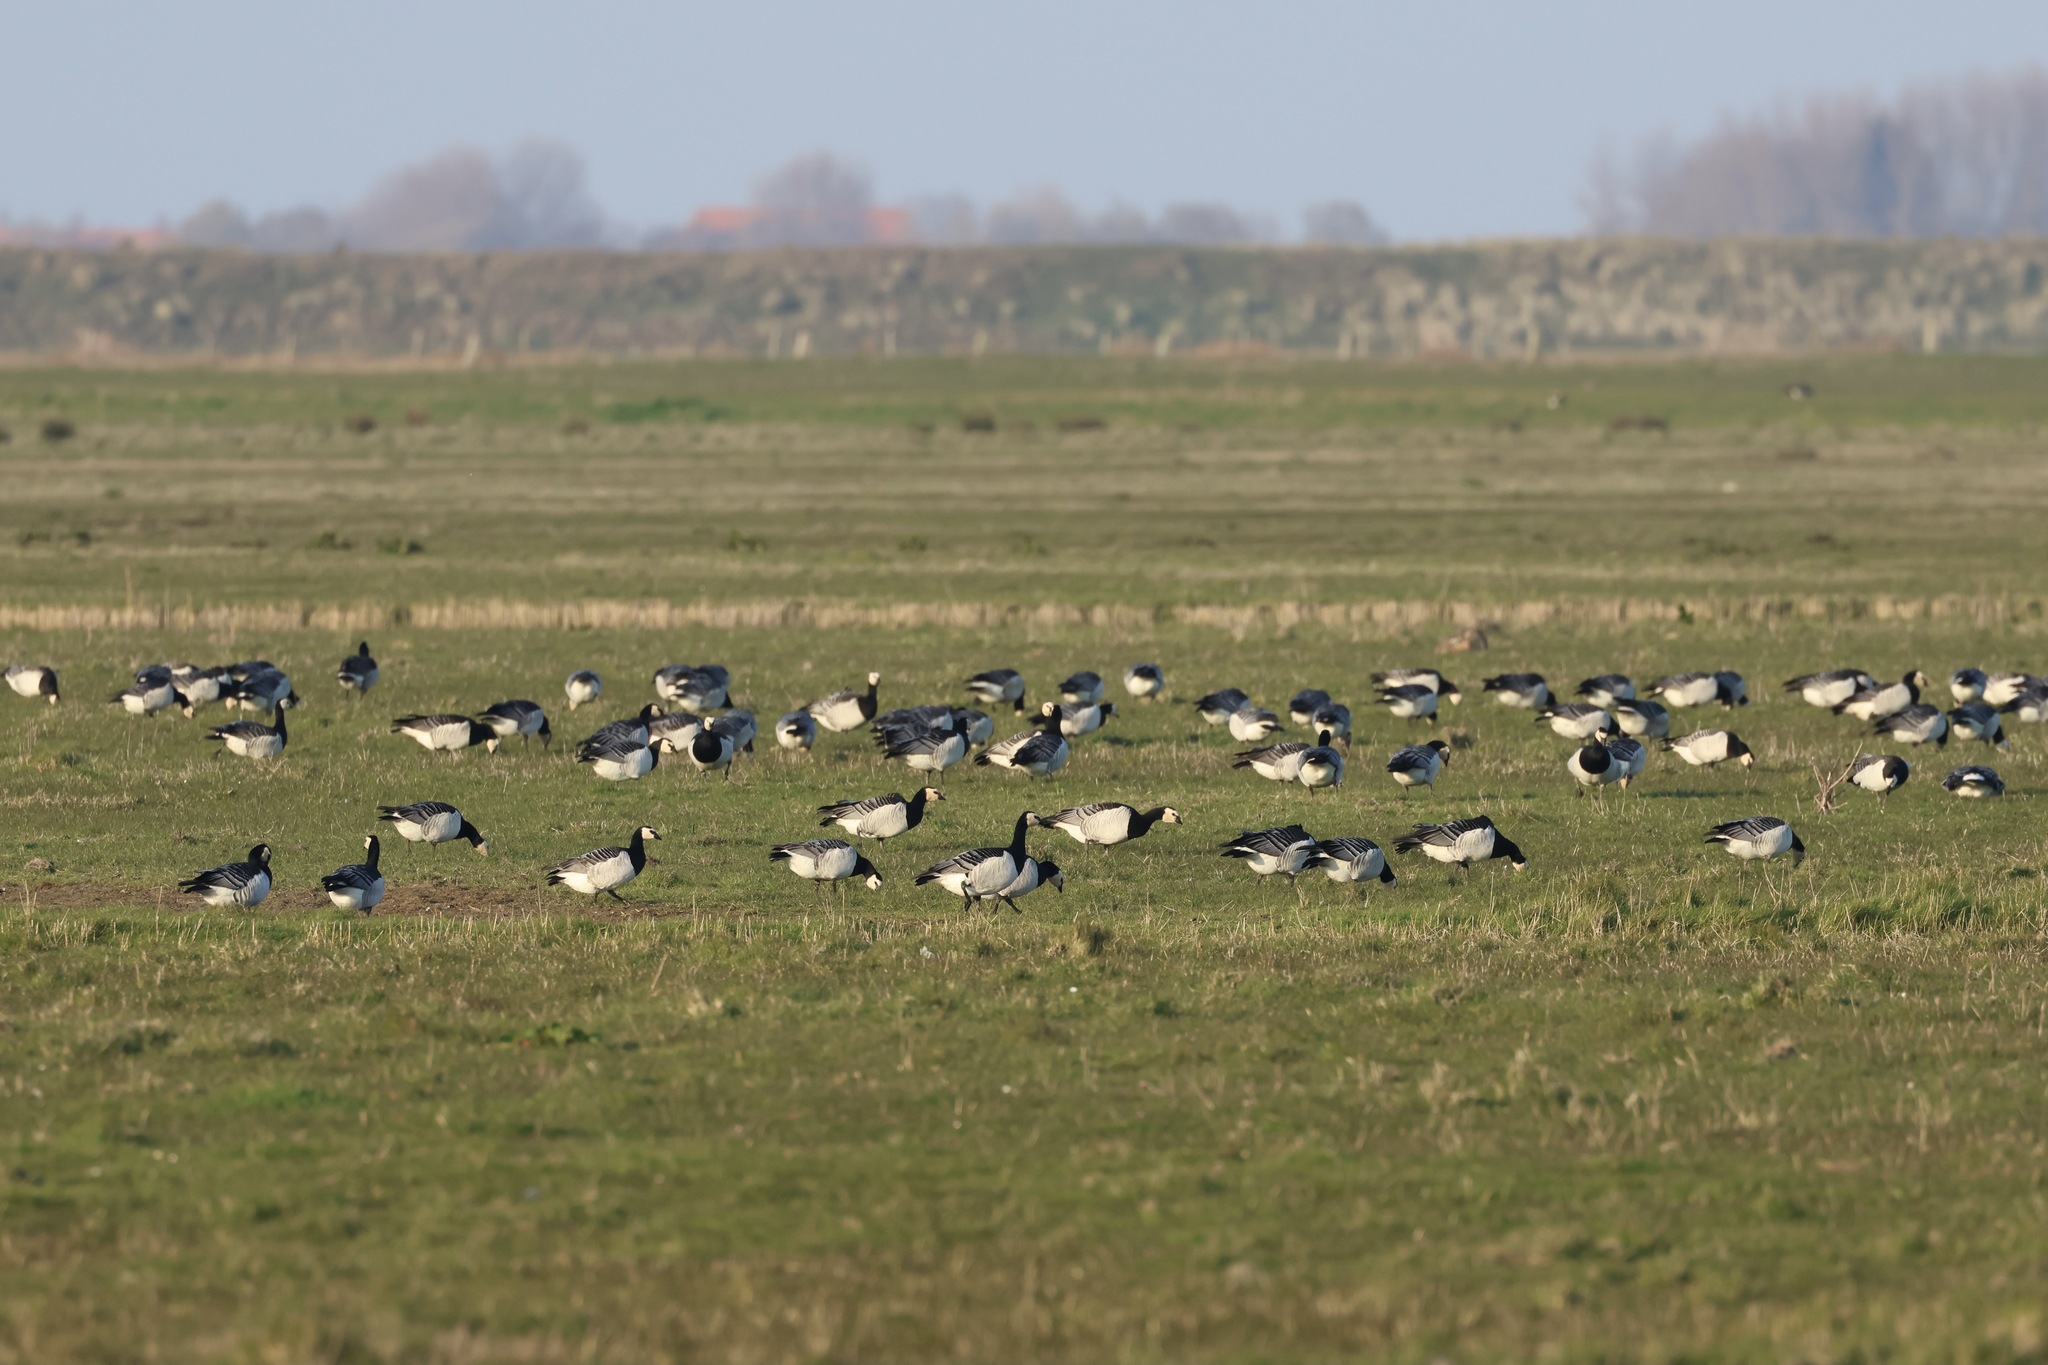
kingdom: Animalia
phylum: Chordata
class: Aves
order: Anseriformes
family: Anatidae
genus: Branta
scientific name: Branta leucopsis
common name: Barnacle goose
